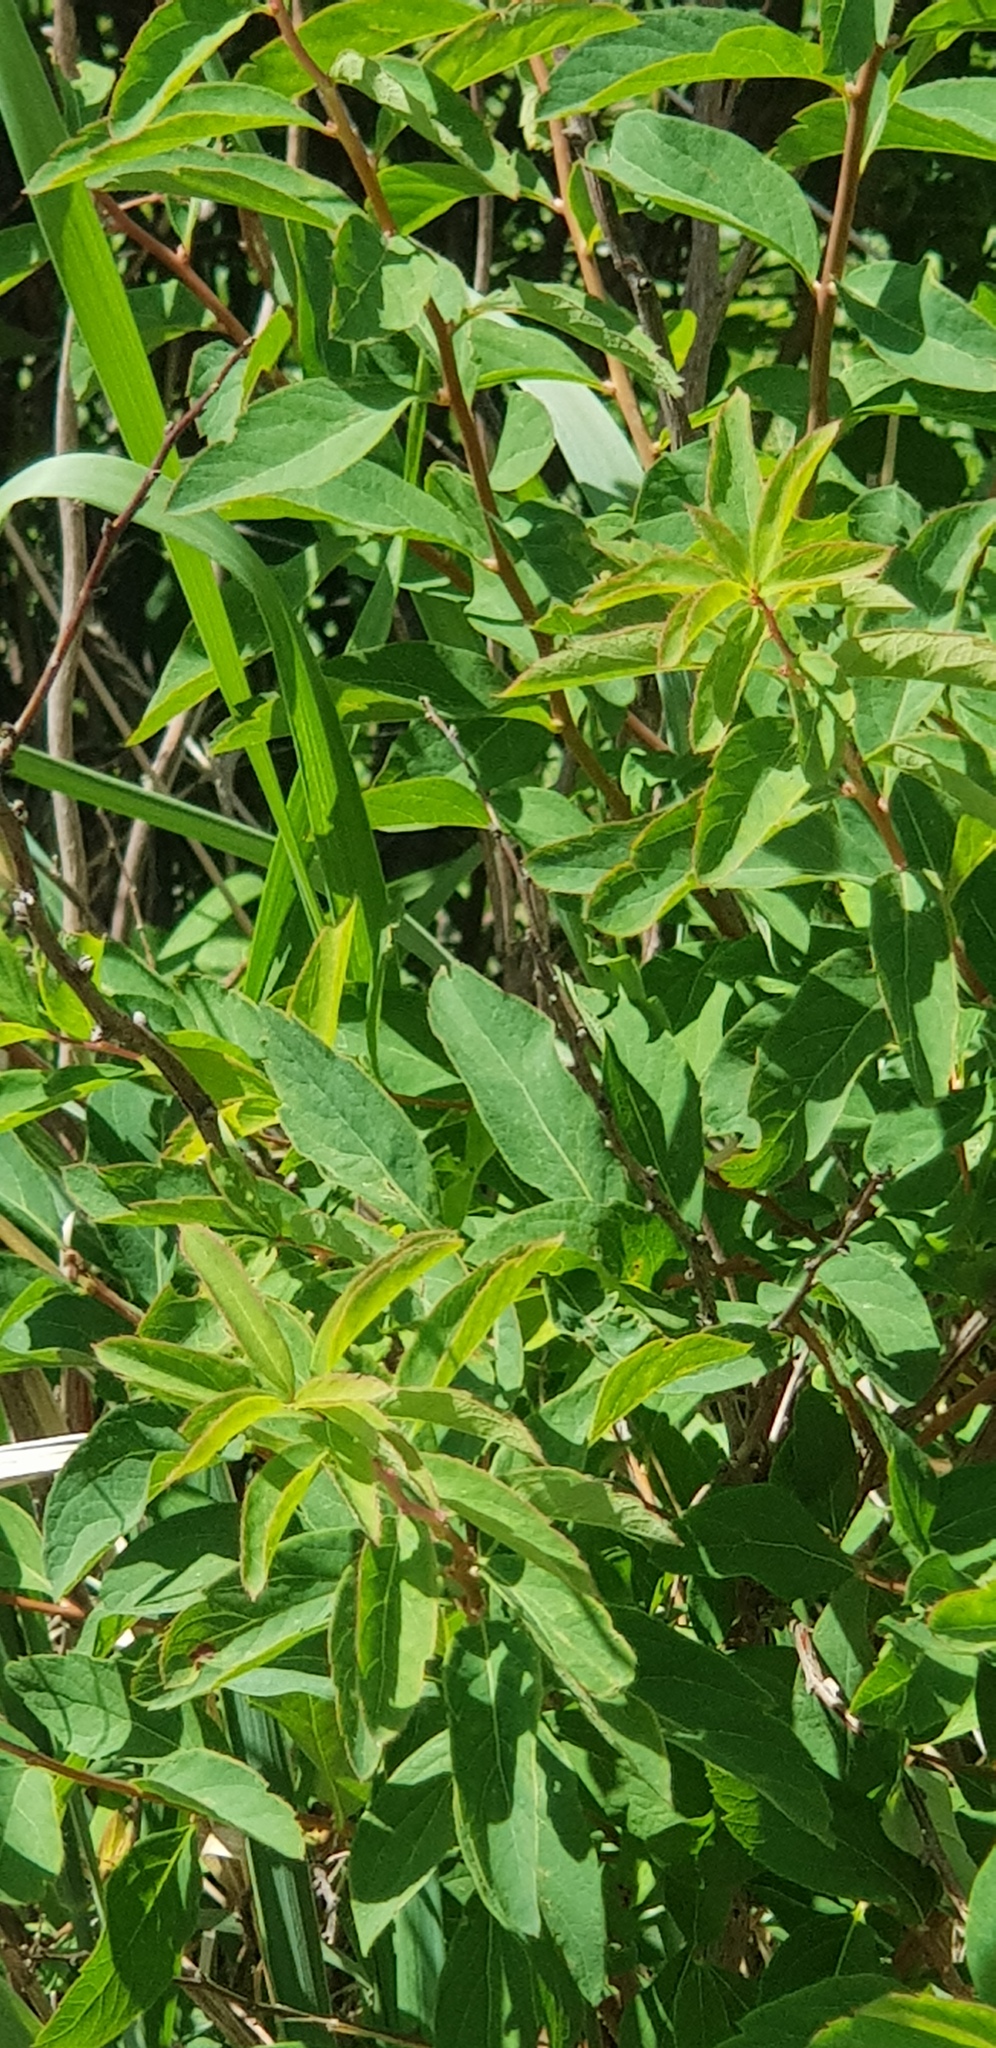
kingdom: Plantae
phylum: Tracheophyta
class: Magnoliopsida
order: Rosales
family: Rosaceae
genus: Spiraea
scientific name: Spiraea media
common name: Russian spiraea
